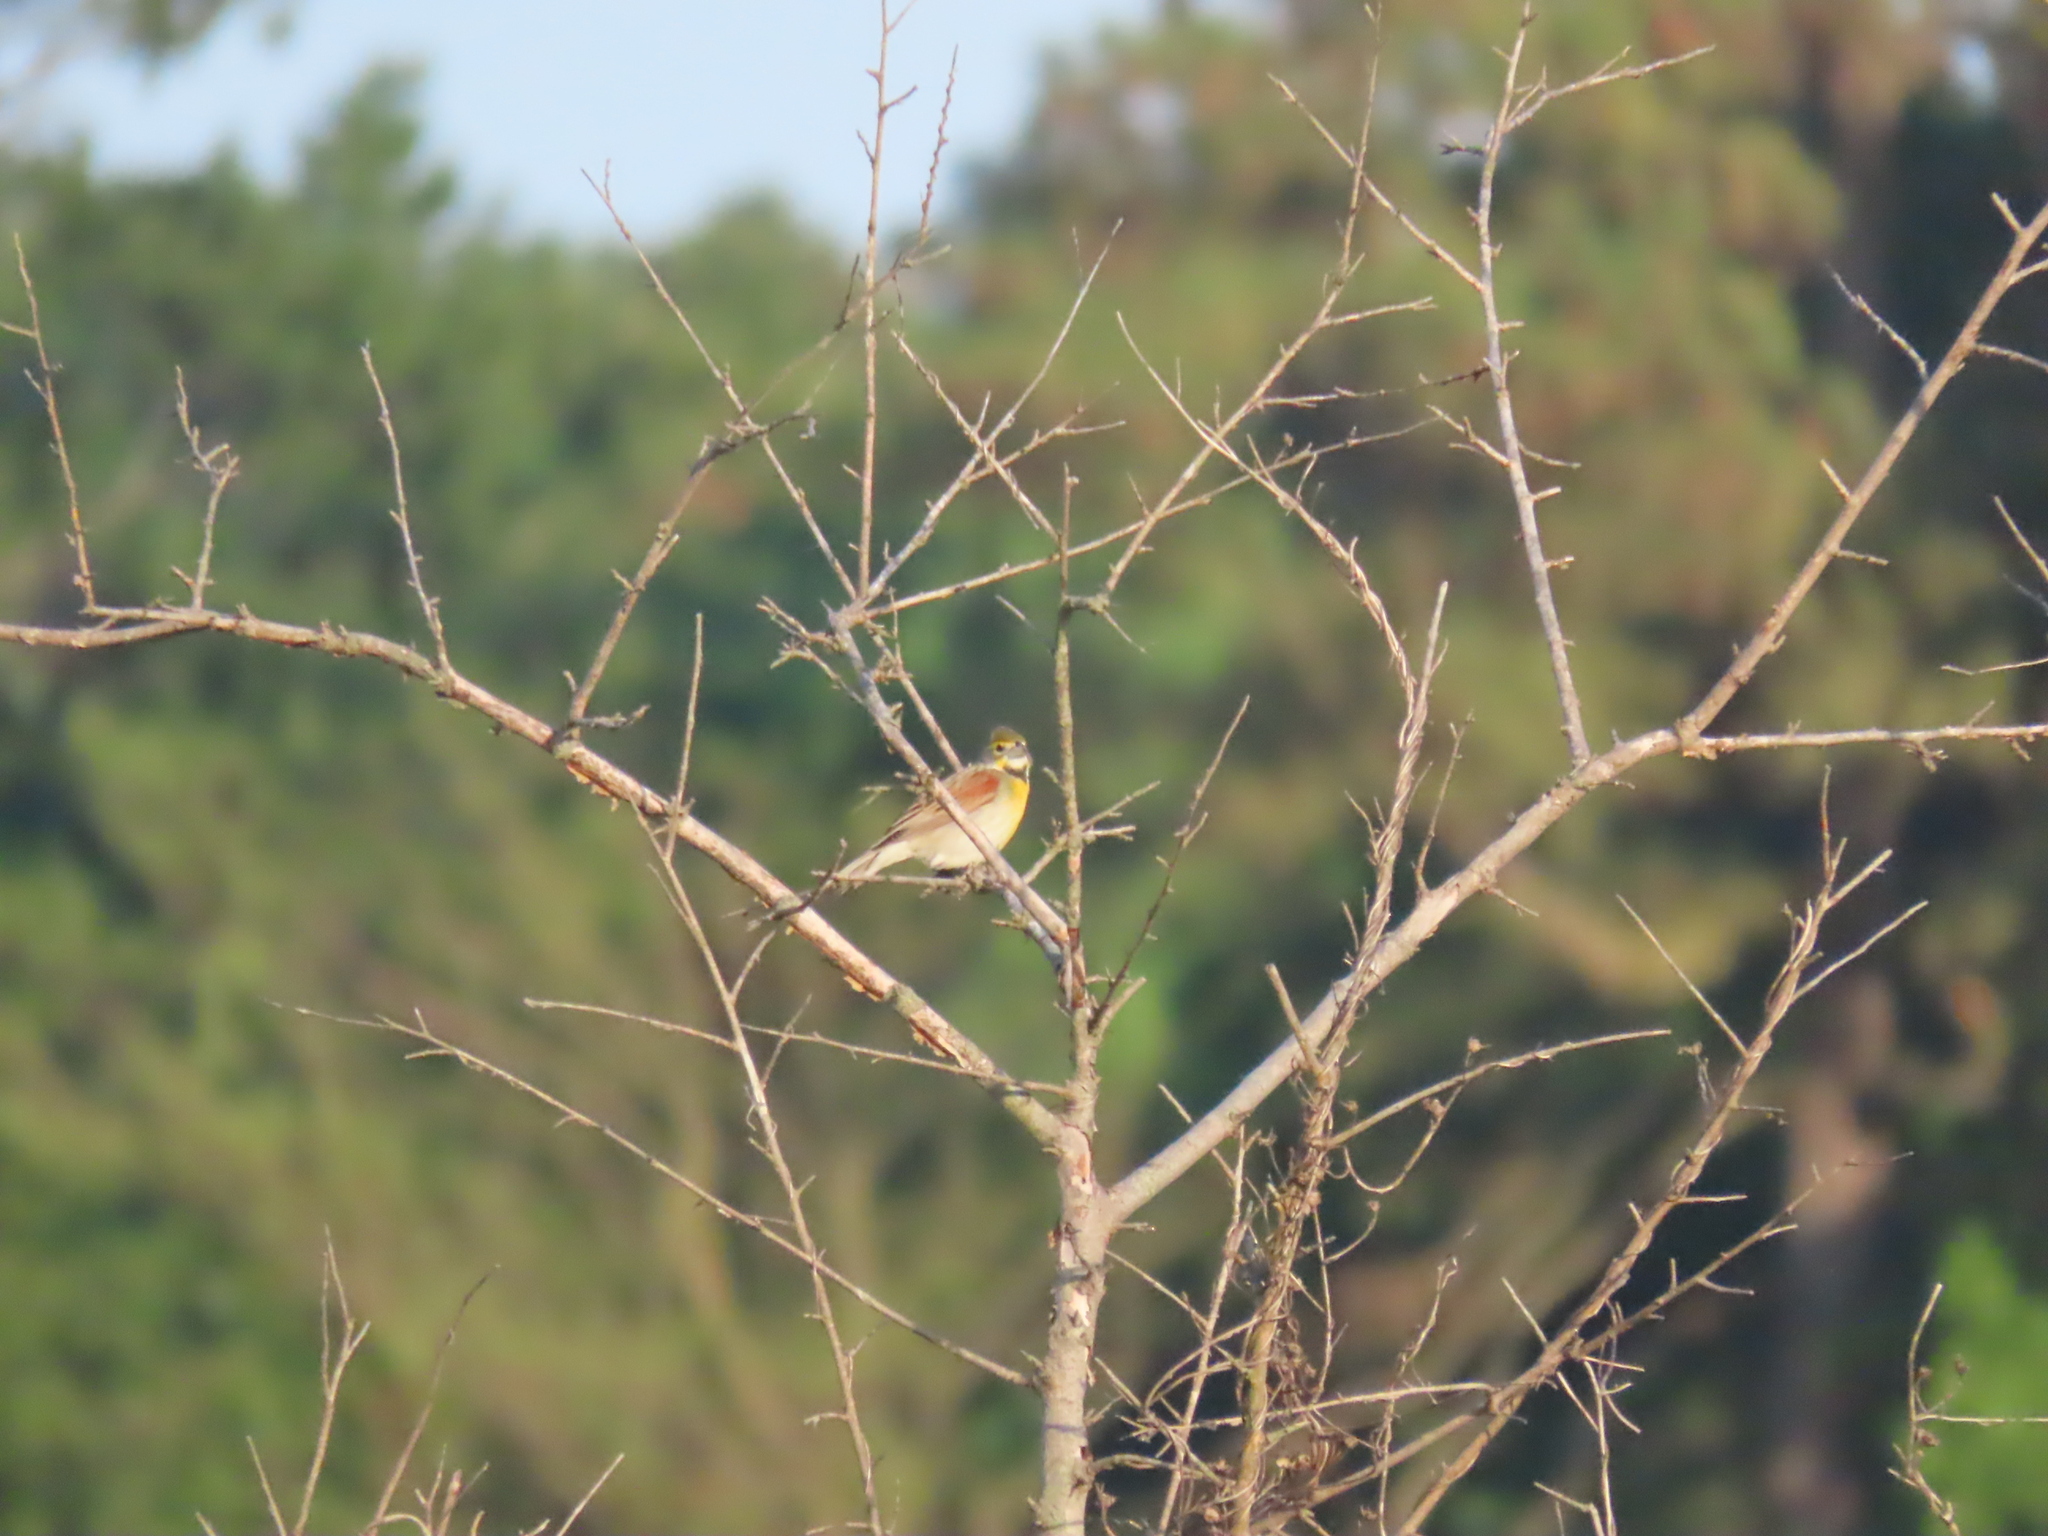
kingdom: Animalia
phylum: Chordata
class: Aves
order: Passeriformes
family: Cardinalidae
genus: Spiza
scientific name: Spiza americana
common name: Dickcissel
